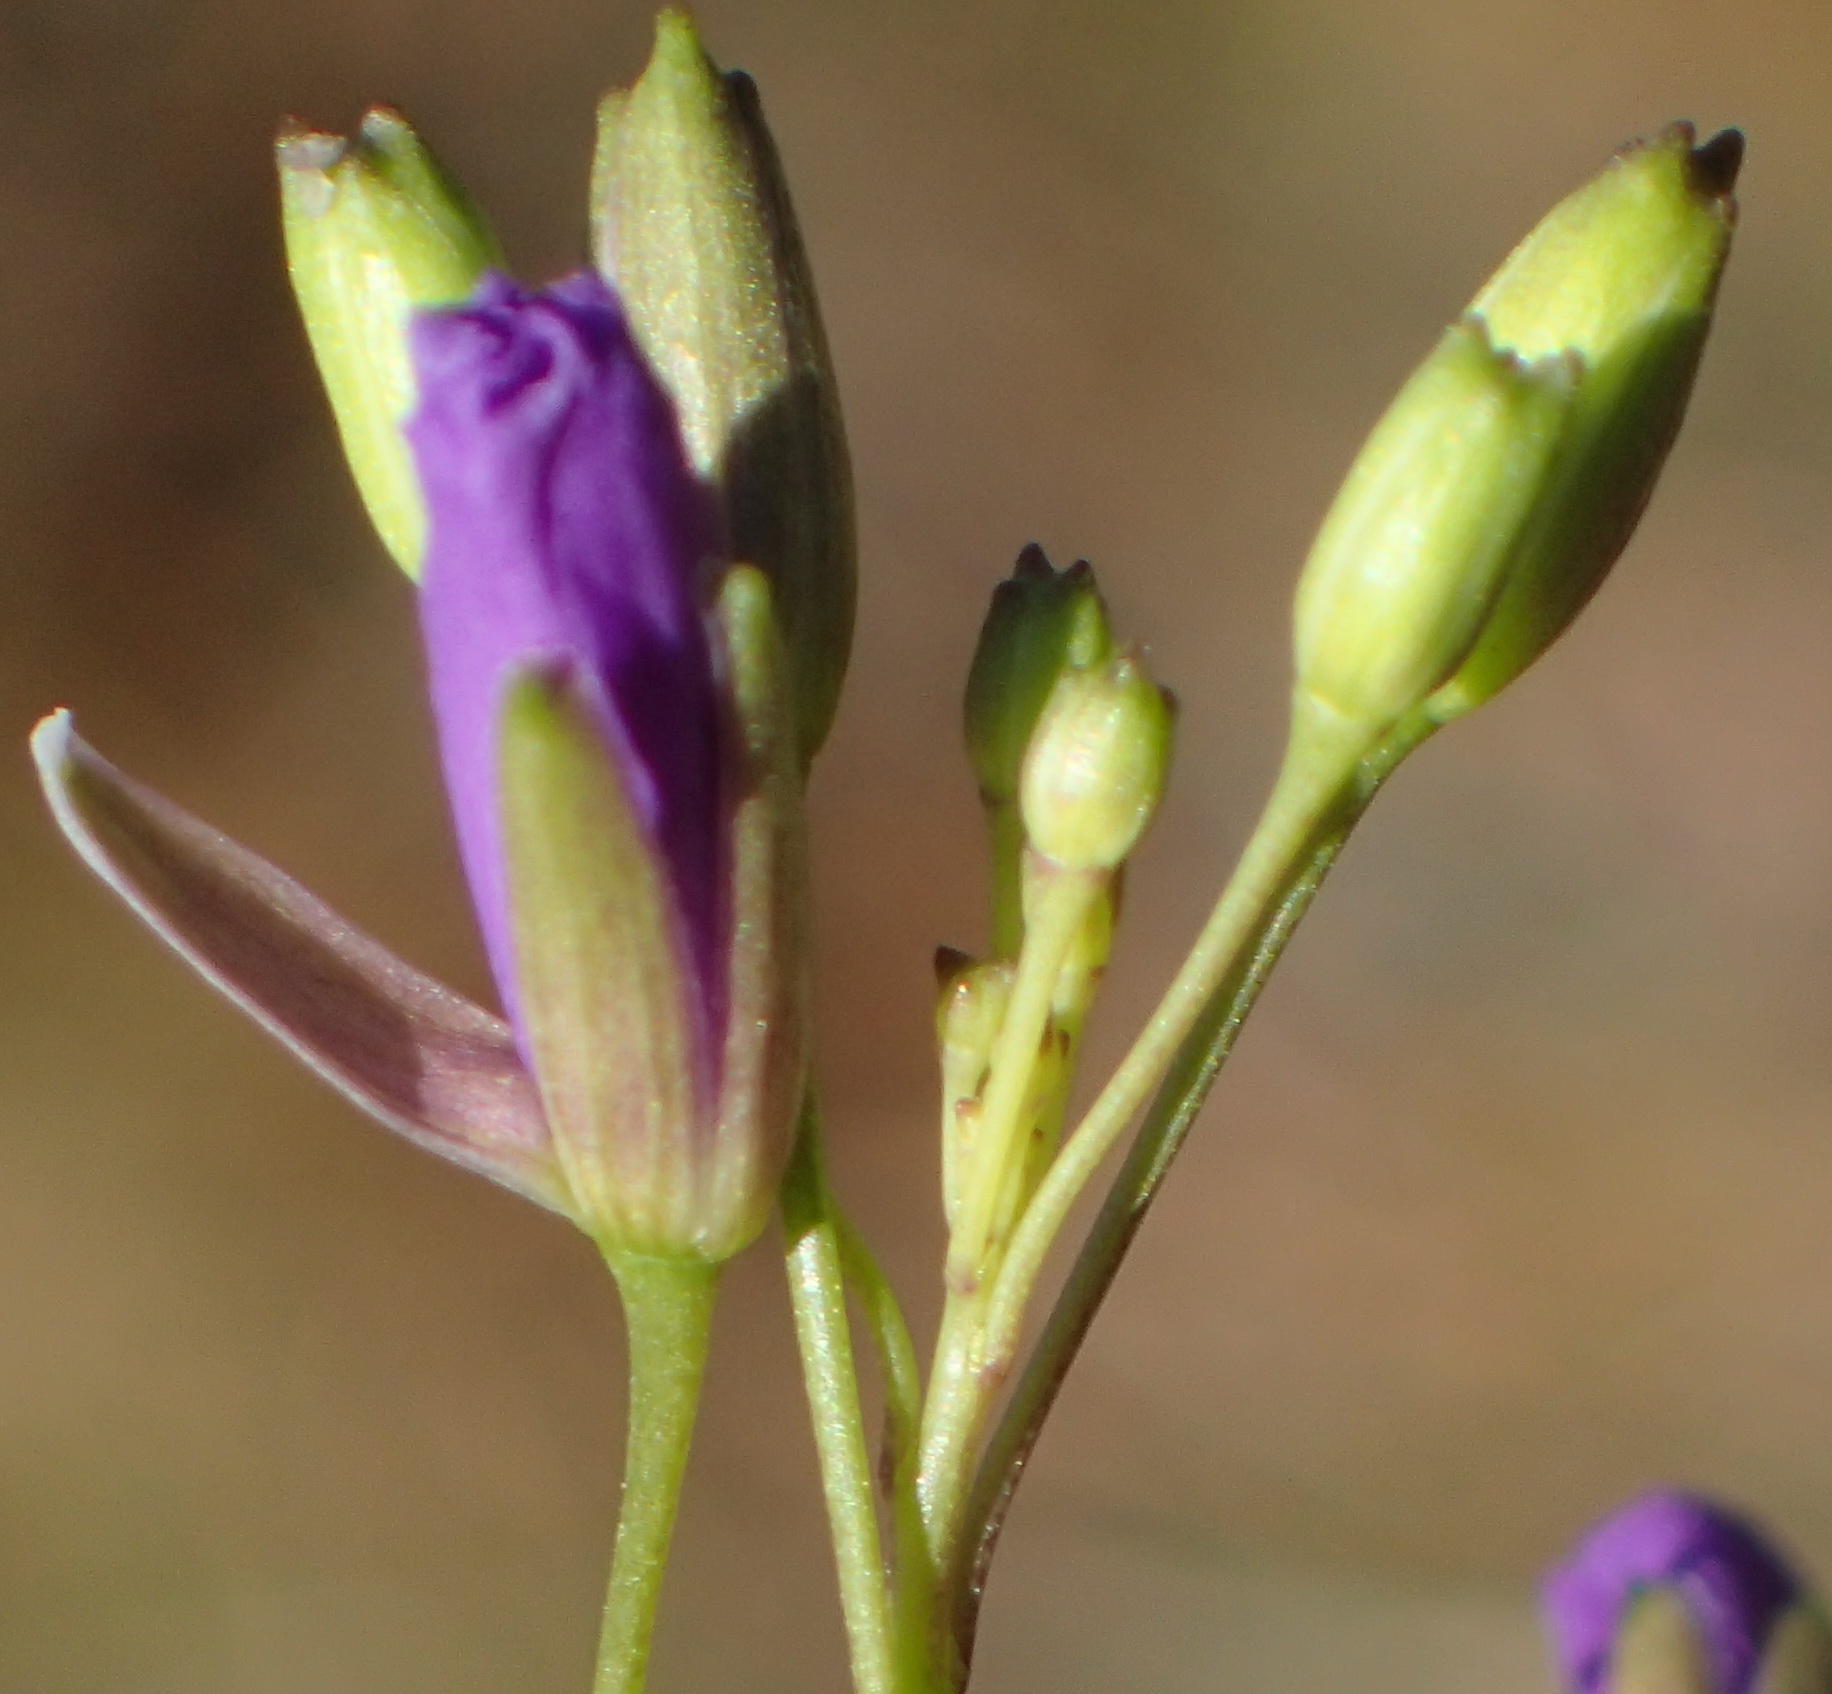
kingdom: Plantae
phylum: Tracheophyta
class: Magnoliopsida
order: Brassicales
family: Brassicaceae
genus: Heliophila
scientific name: Heliophila subulata
